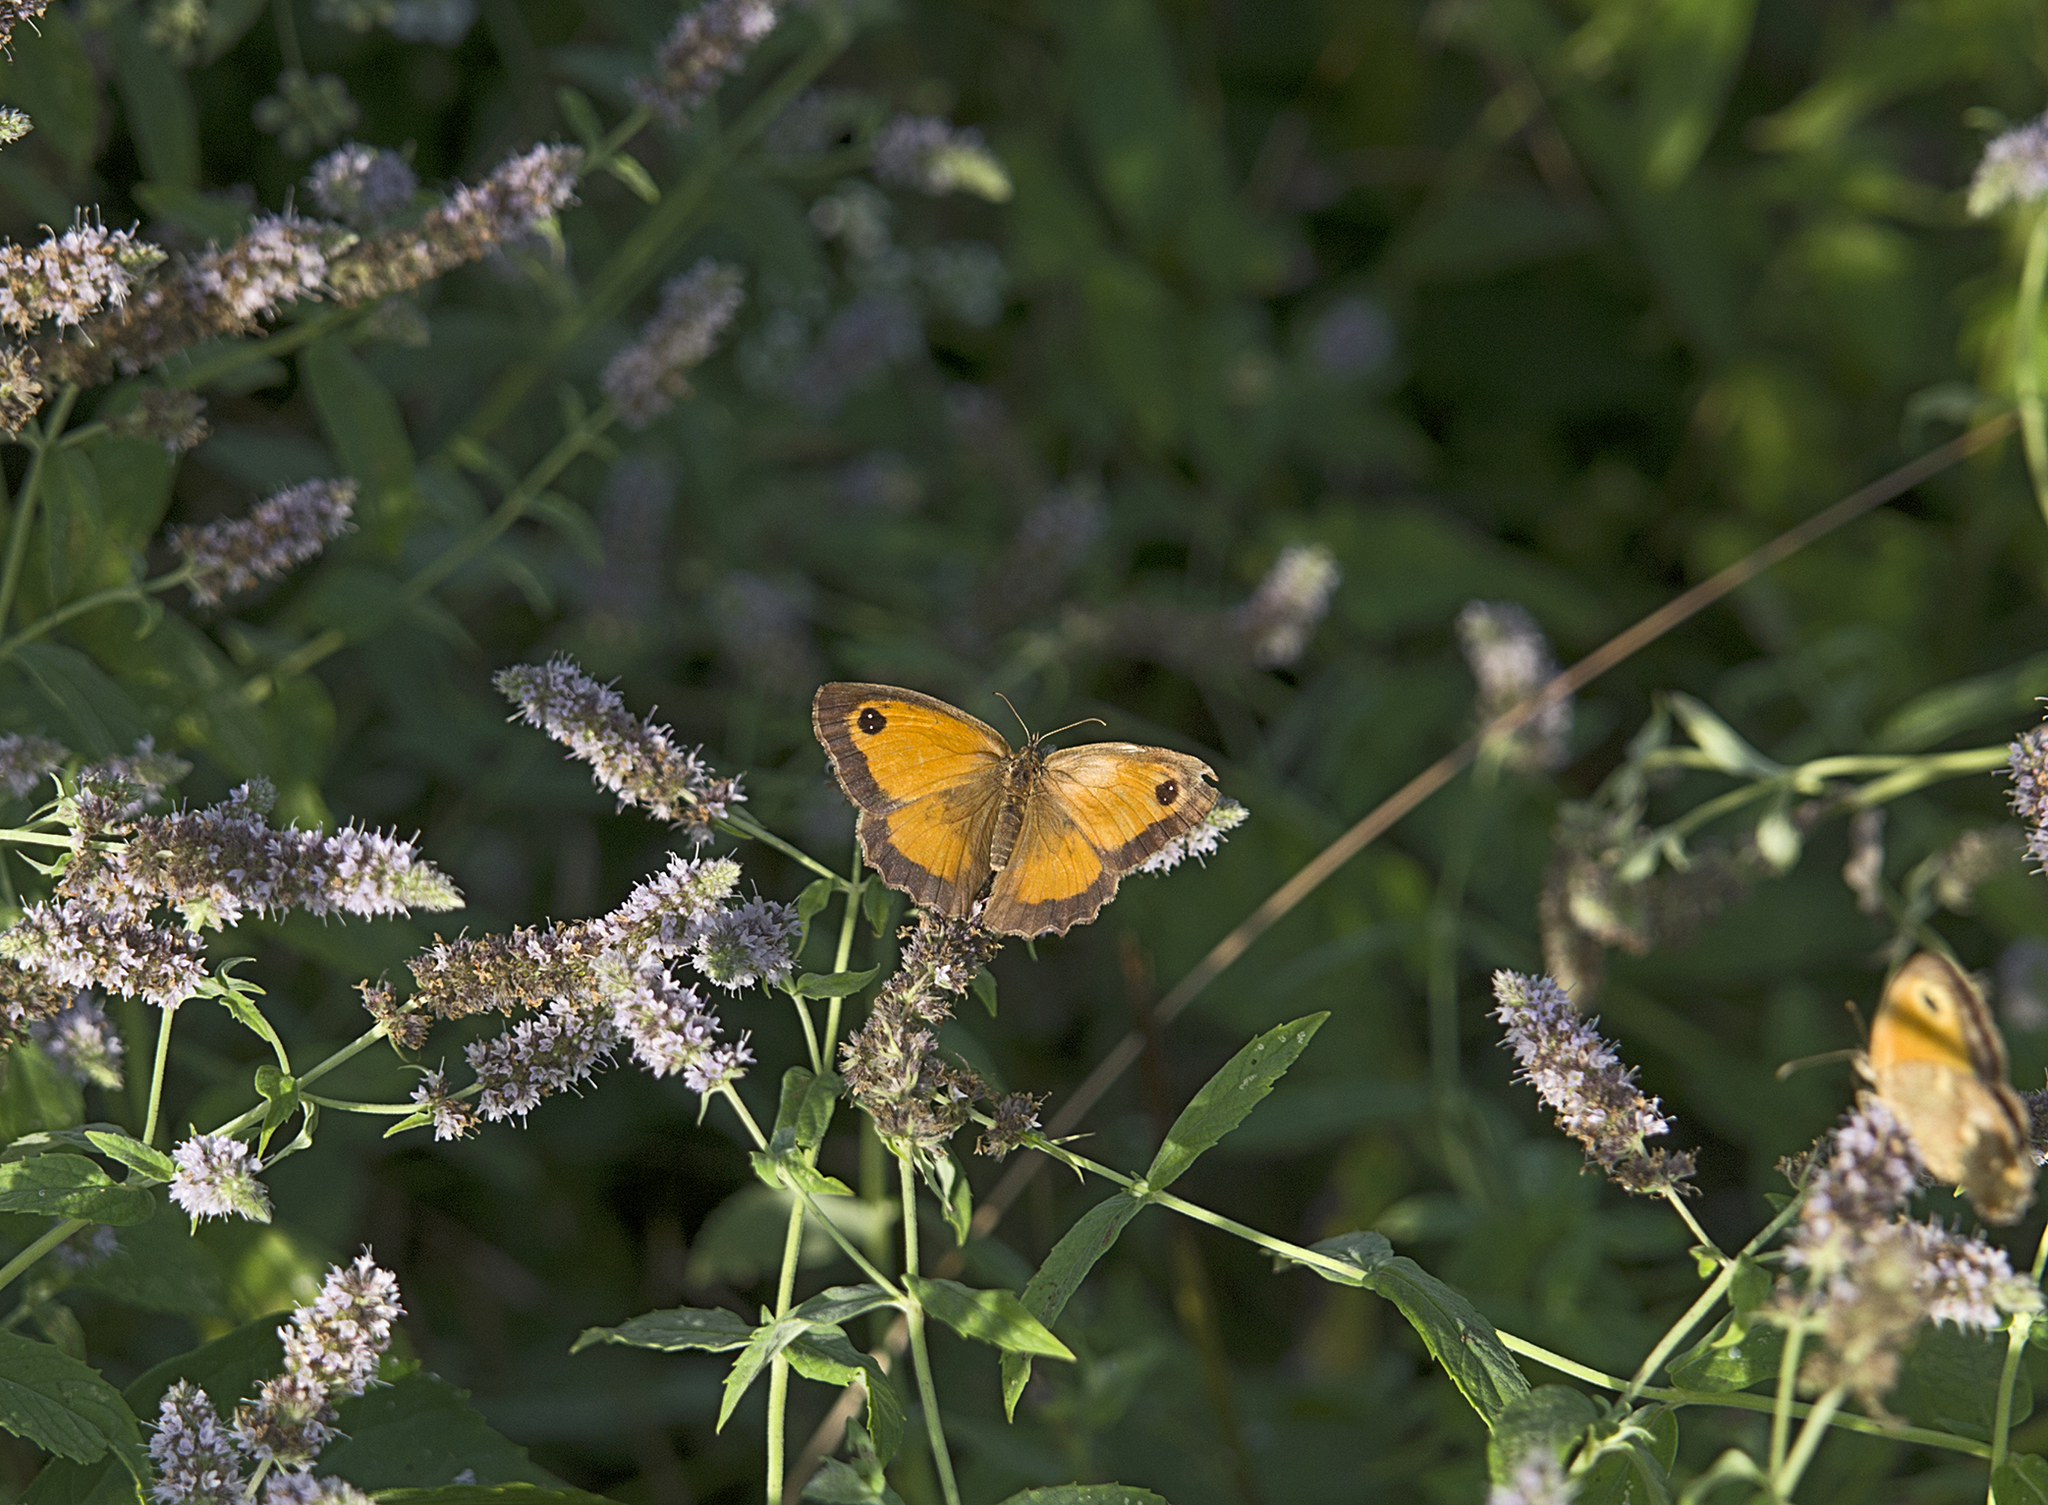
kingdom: Animalia
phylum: Arthropoda
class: Insecta
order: Lepidoptera
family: Nymphalidae
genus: Pyronia
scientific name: Pyronia tithonus
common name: Gatekeeper
